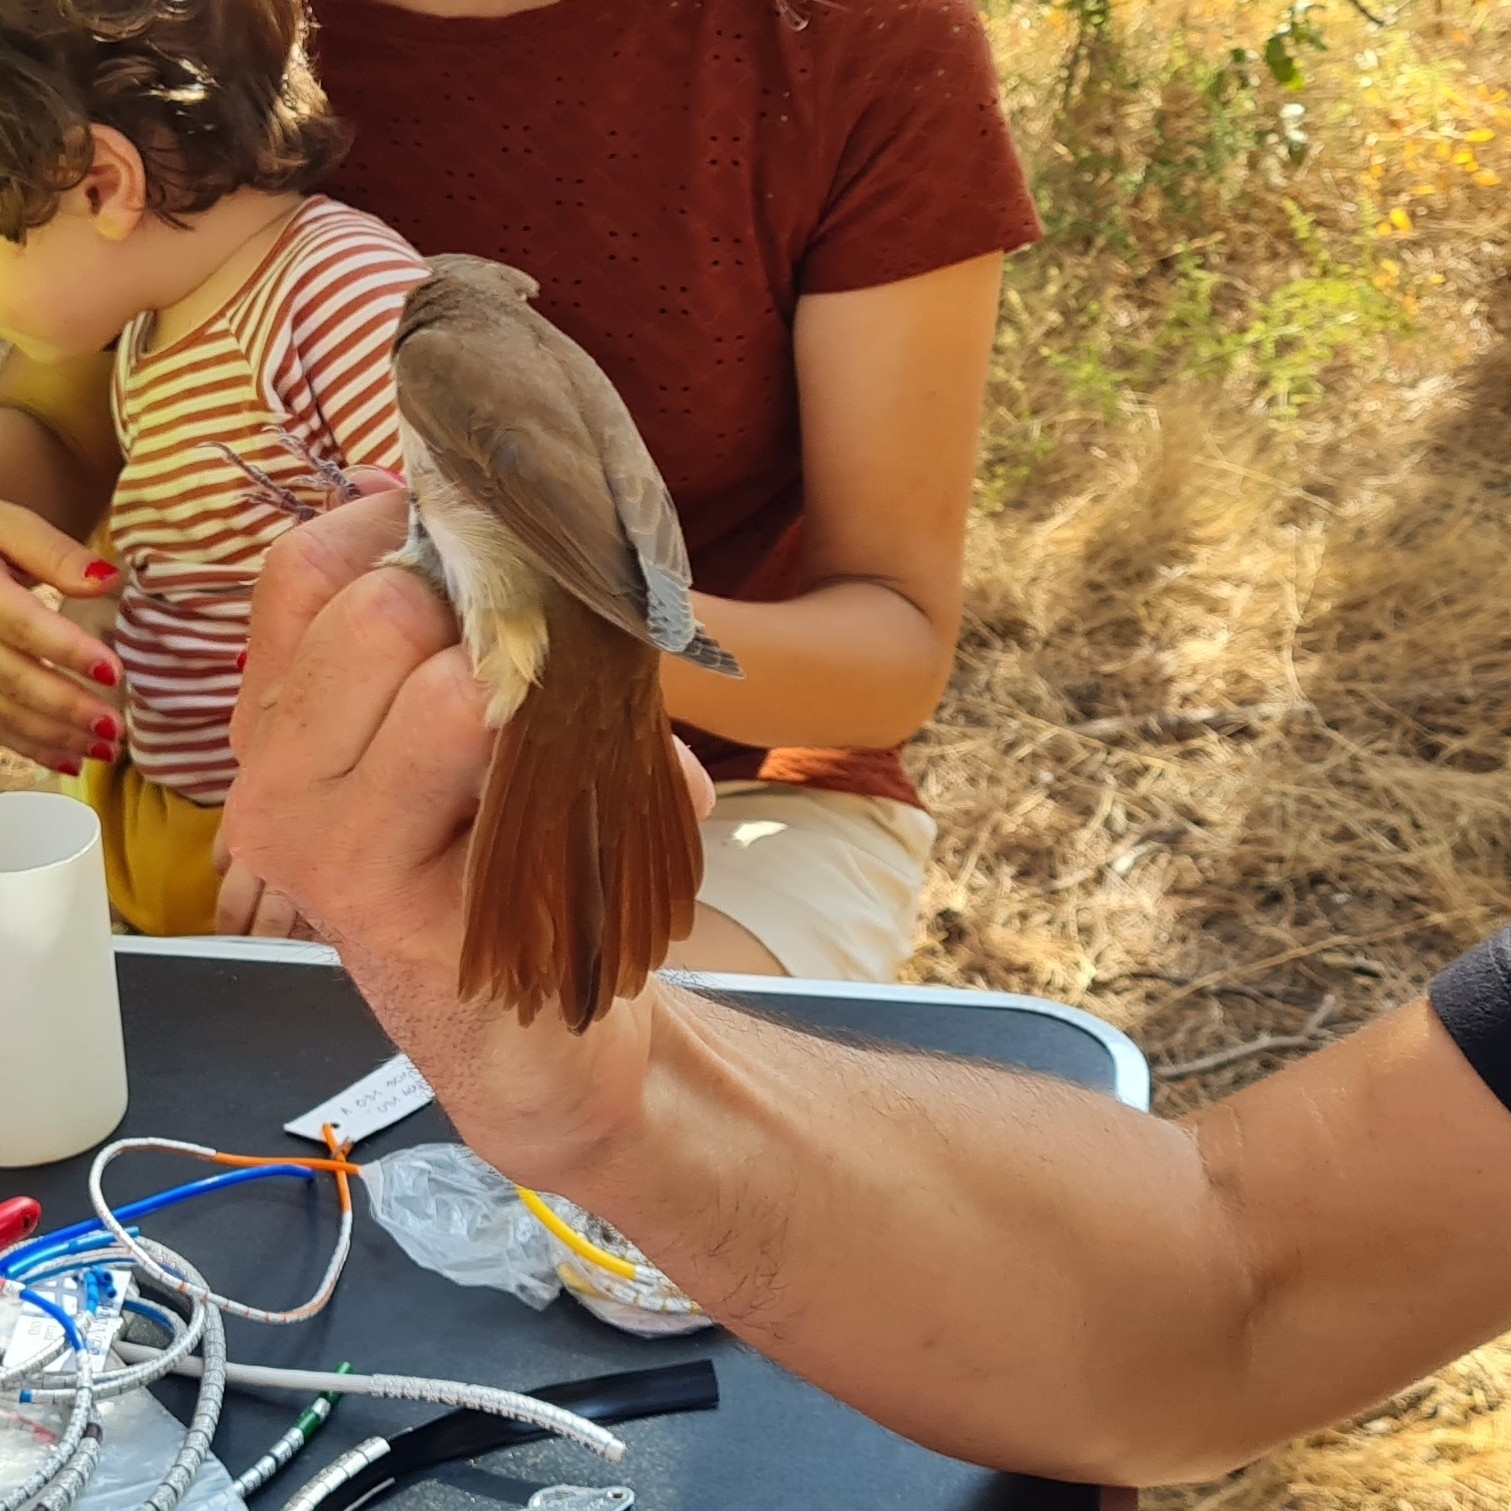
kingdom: Animalia
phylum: Chordata
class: Aves
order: Passeriformes
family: Muscicapidae
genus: Luscinia
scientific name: Luscinia megarhynchos
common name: Common nightingale
